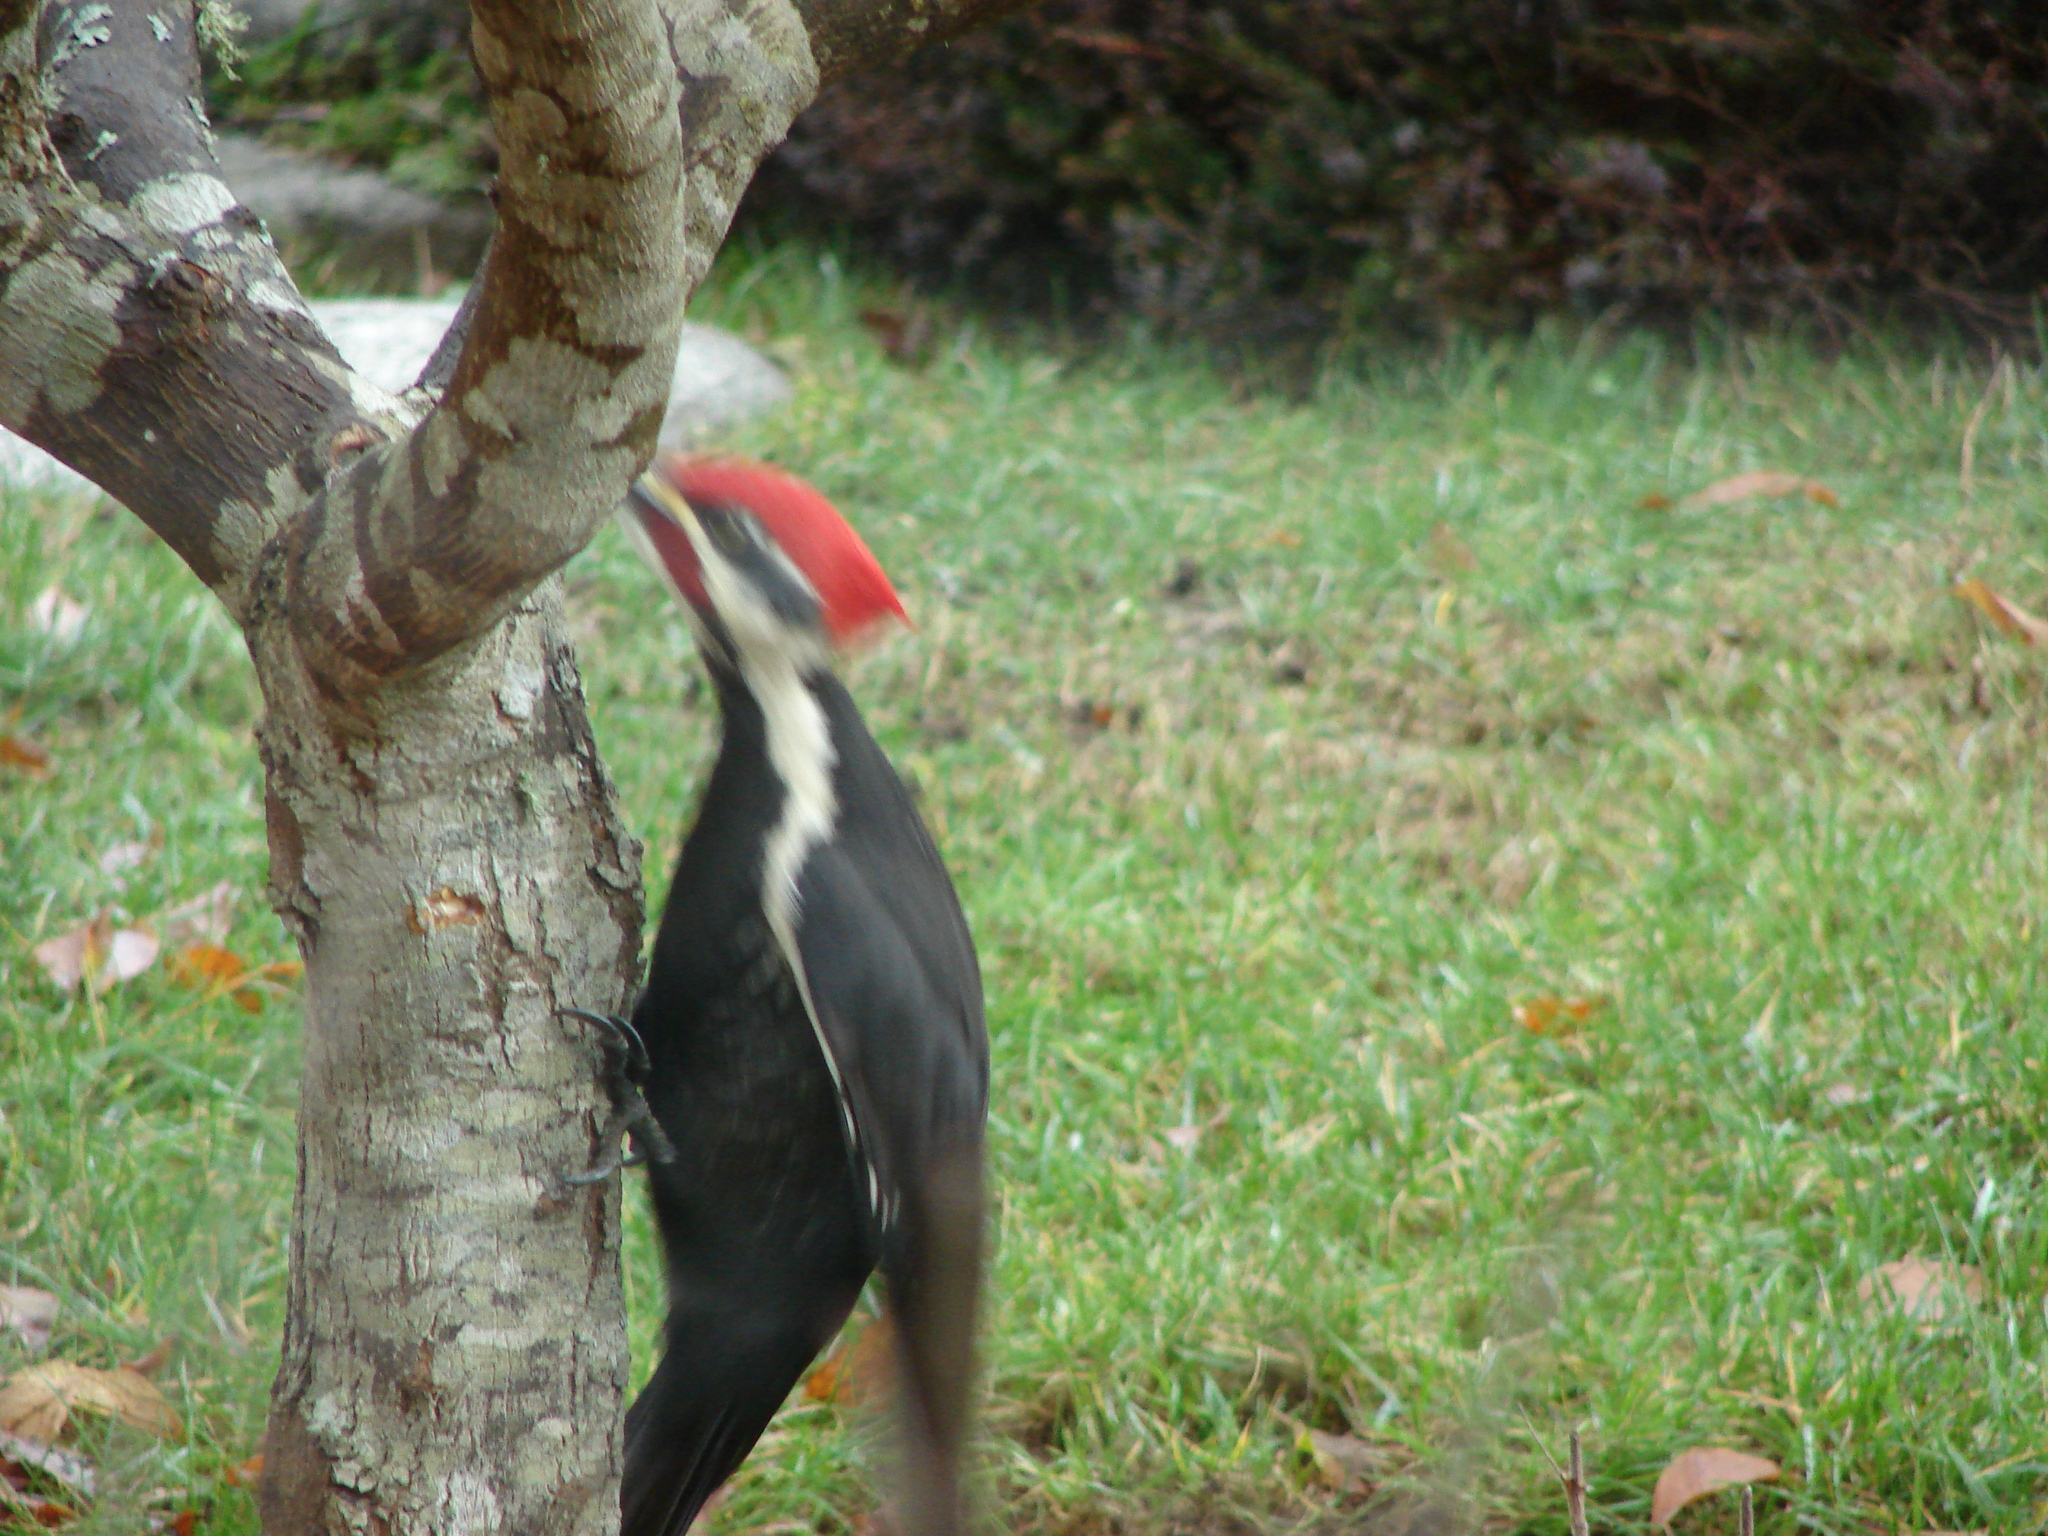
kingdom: Animalia
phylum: Chordata
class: Aves
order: Piciformes
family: Picidae
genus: Dryocopus
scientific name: Dryocopus pileatus
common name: Pileated woodpecker
